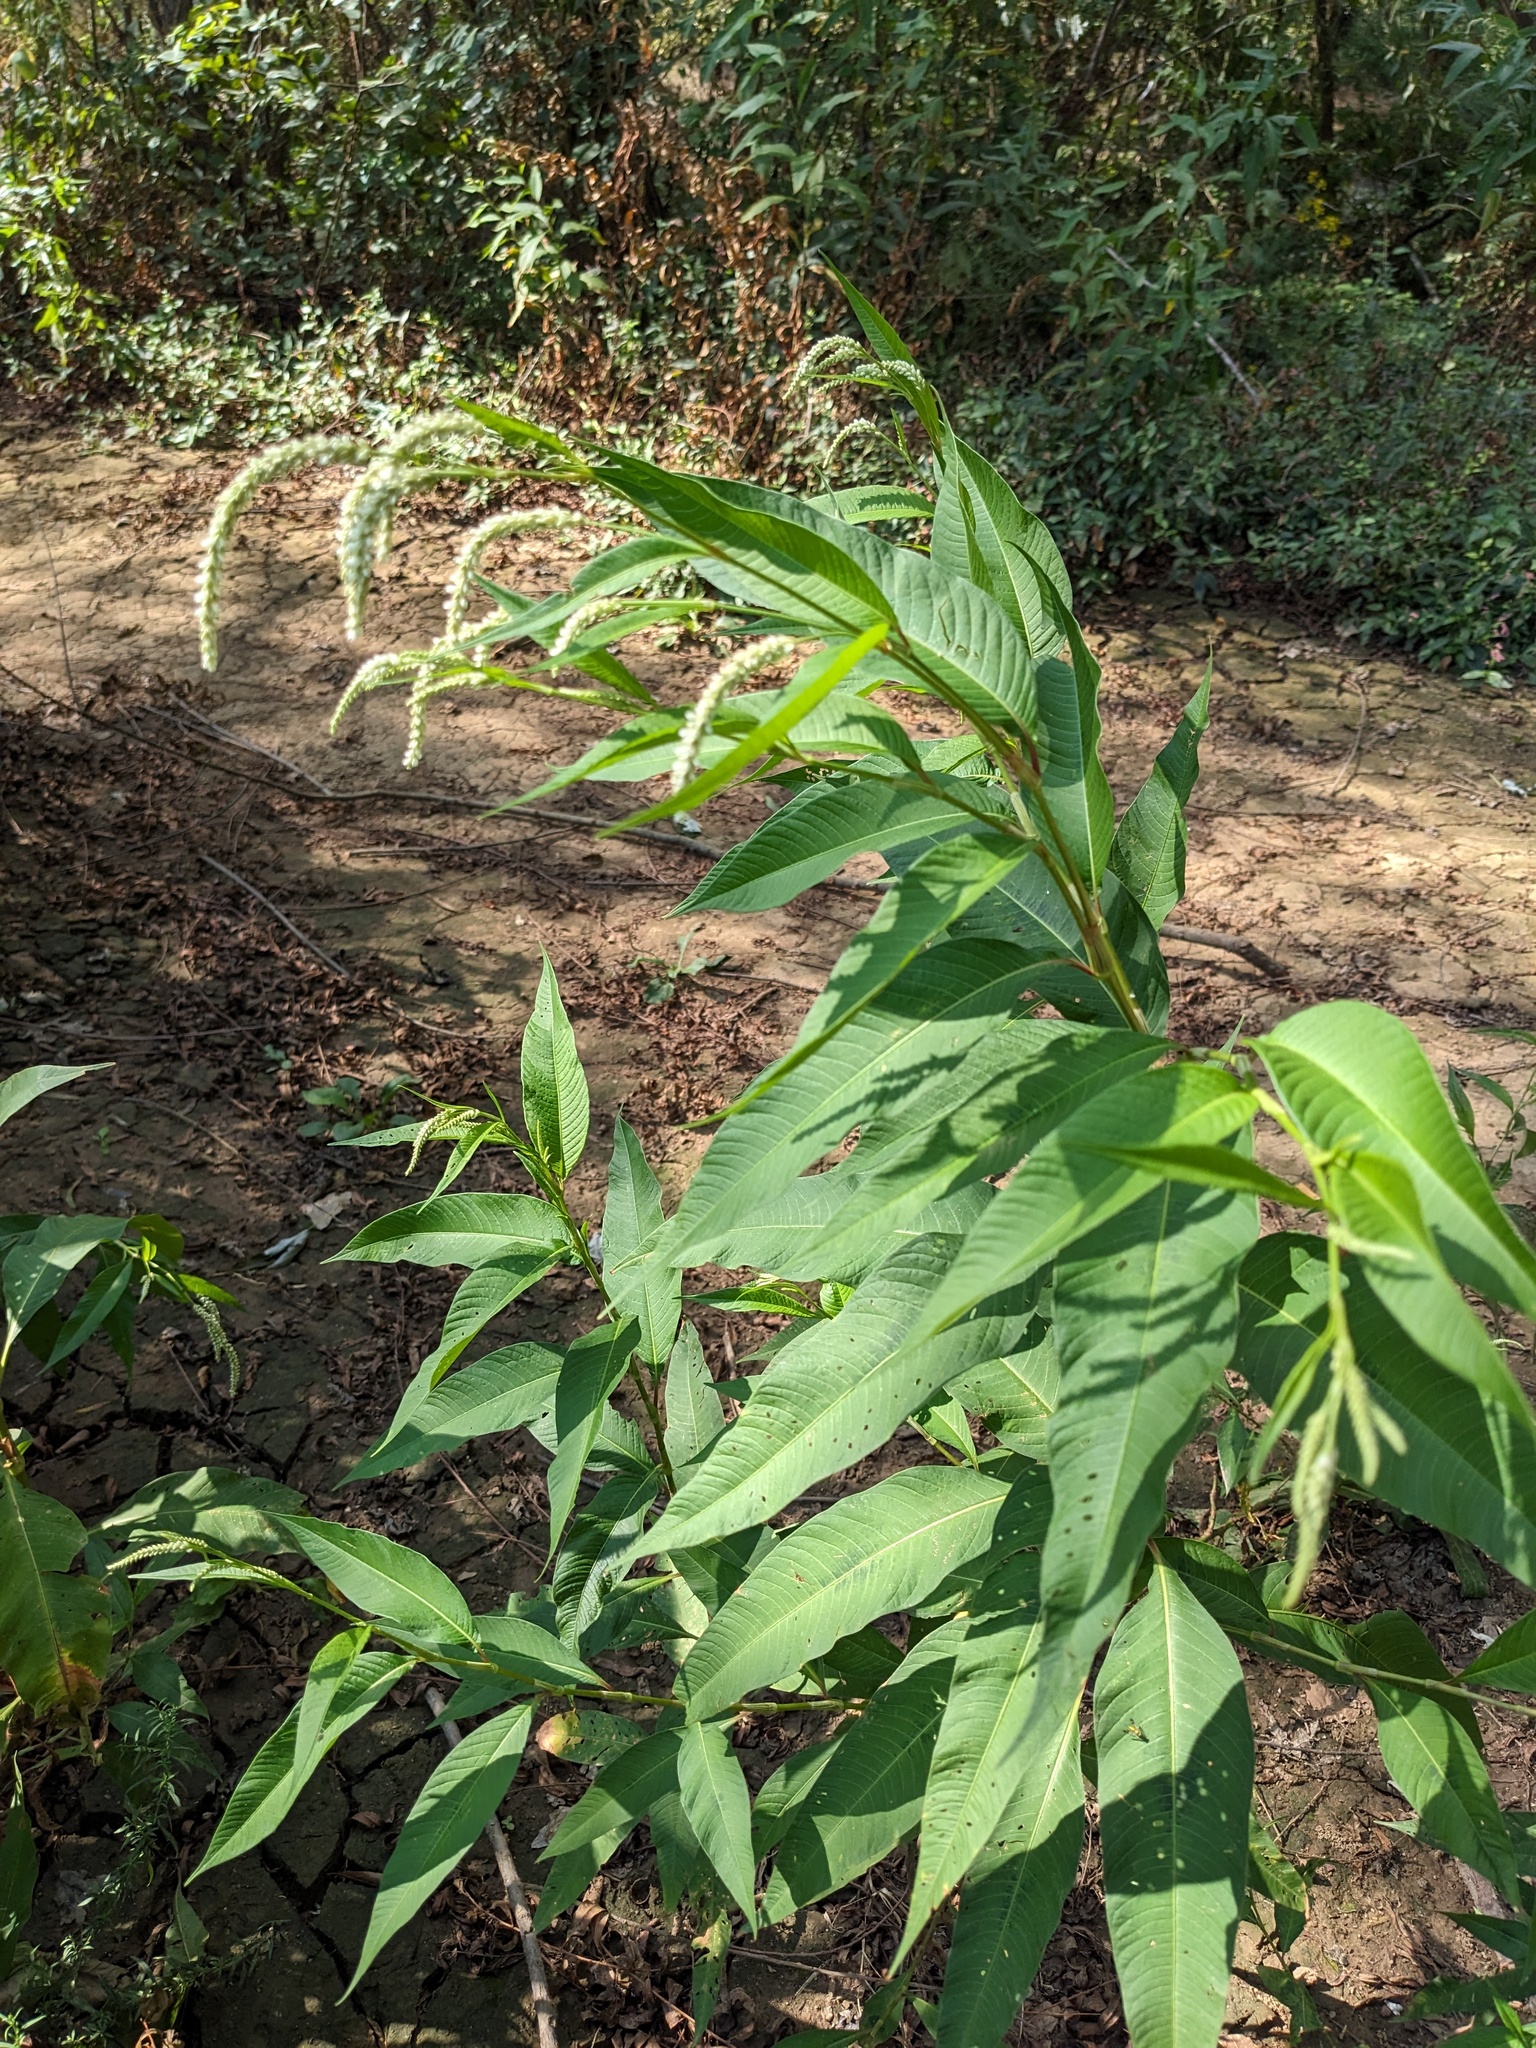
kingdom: Plantae
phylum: Tracheophyta
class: Magnoliopsida
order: Caryophyllales
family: Polygonaceae
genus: Persicaria
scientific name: Persicaria lapathifolia
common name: Curlytop knotweed
